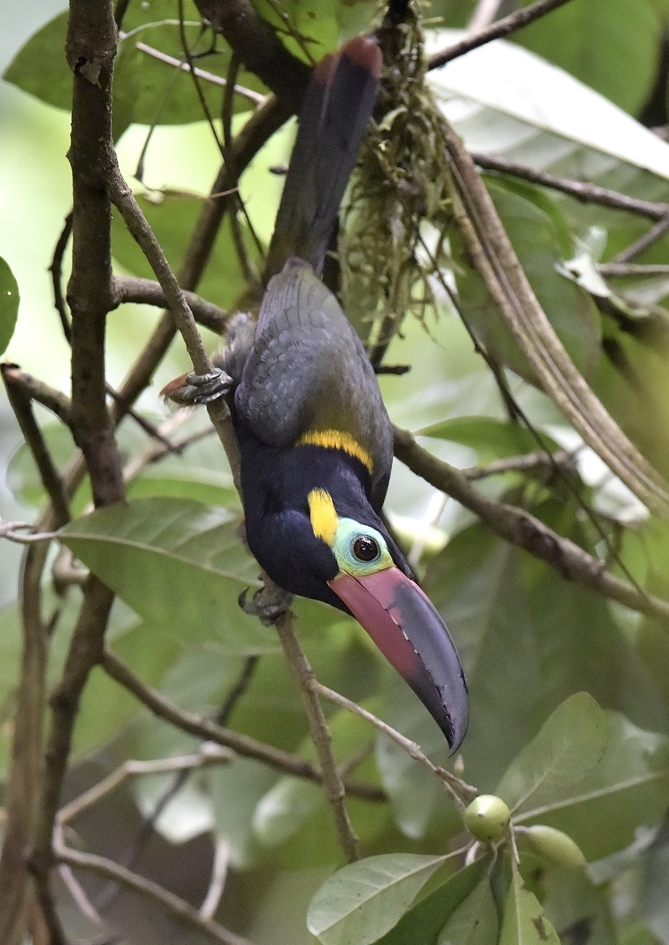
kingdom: Animalia
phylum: Chordata
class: Aves
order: Piciformes
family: Ramphastidae
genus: Selenidera
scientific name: Selenidera piperivora
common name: Guianan toucanet
